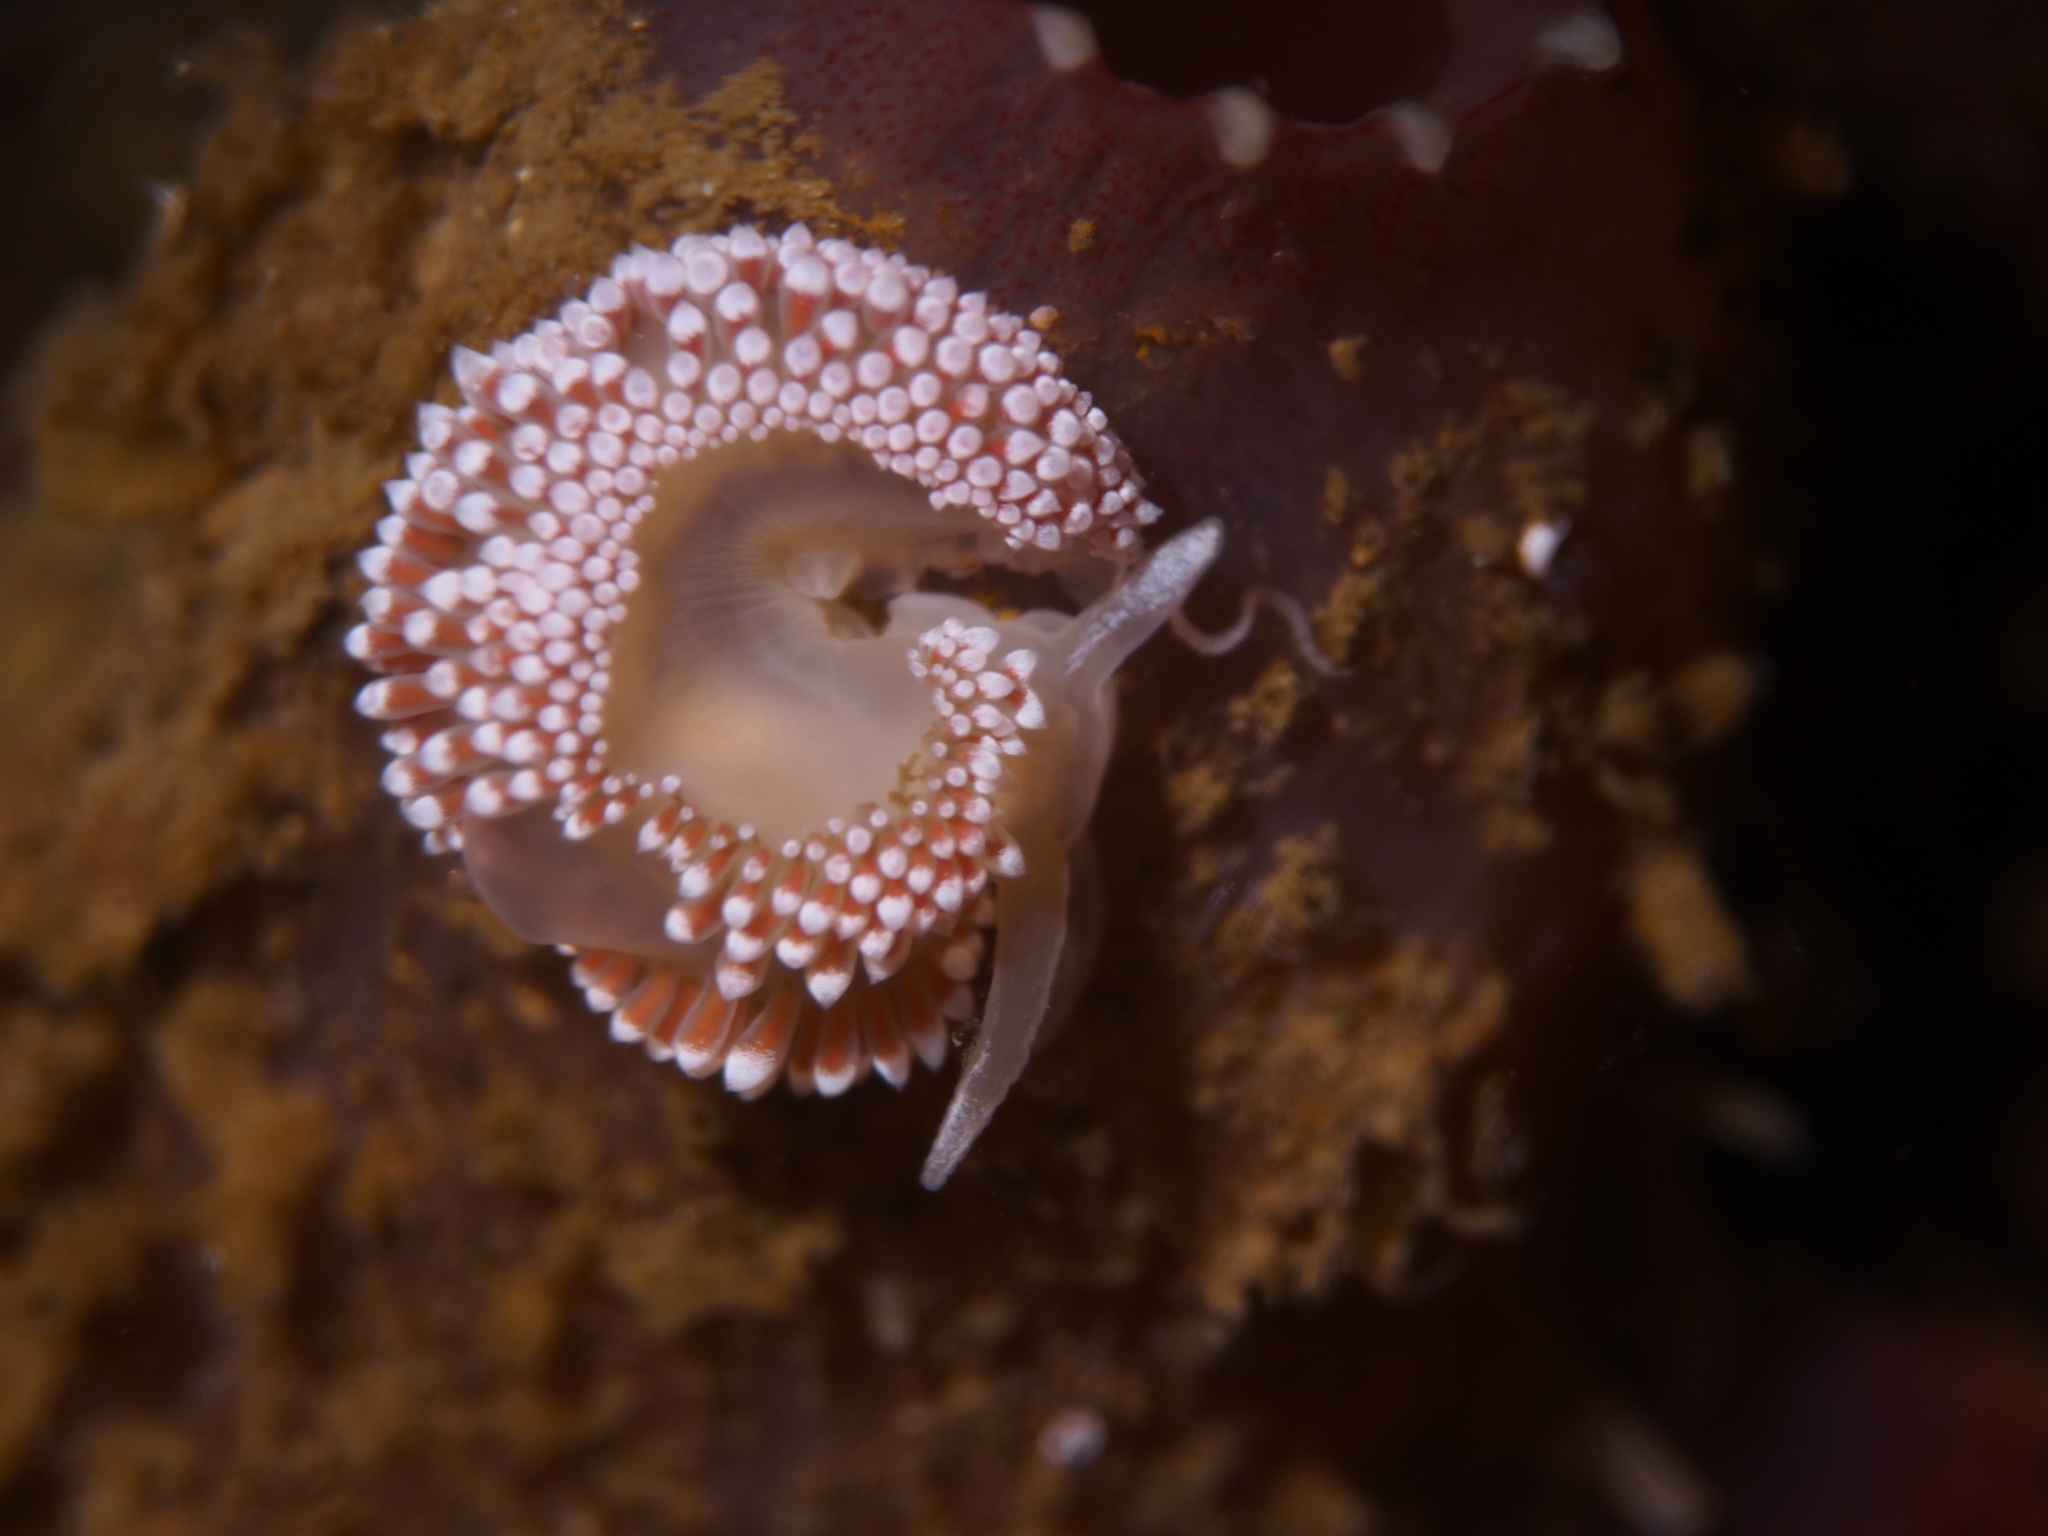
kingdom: Animalia
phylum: Mollusca
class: Gastropoda
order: Nudibranchia
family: Coryphellidae
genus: Coryphella
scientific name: Coryphella verrucosa
